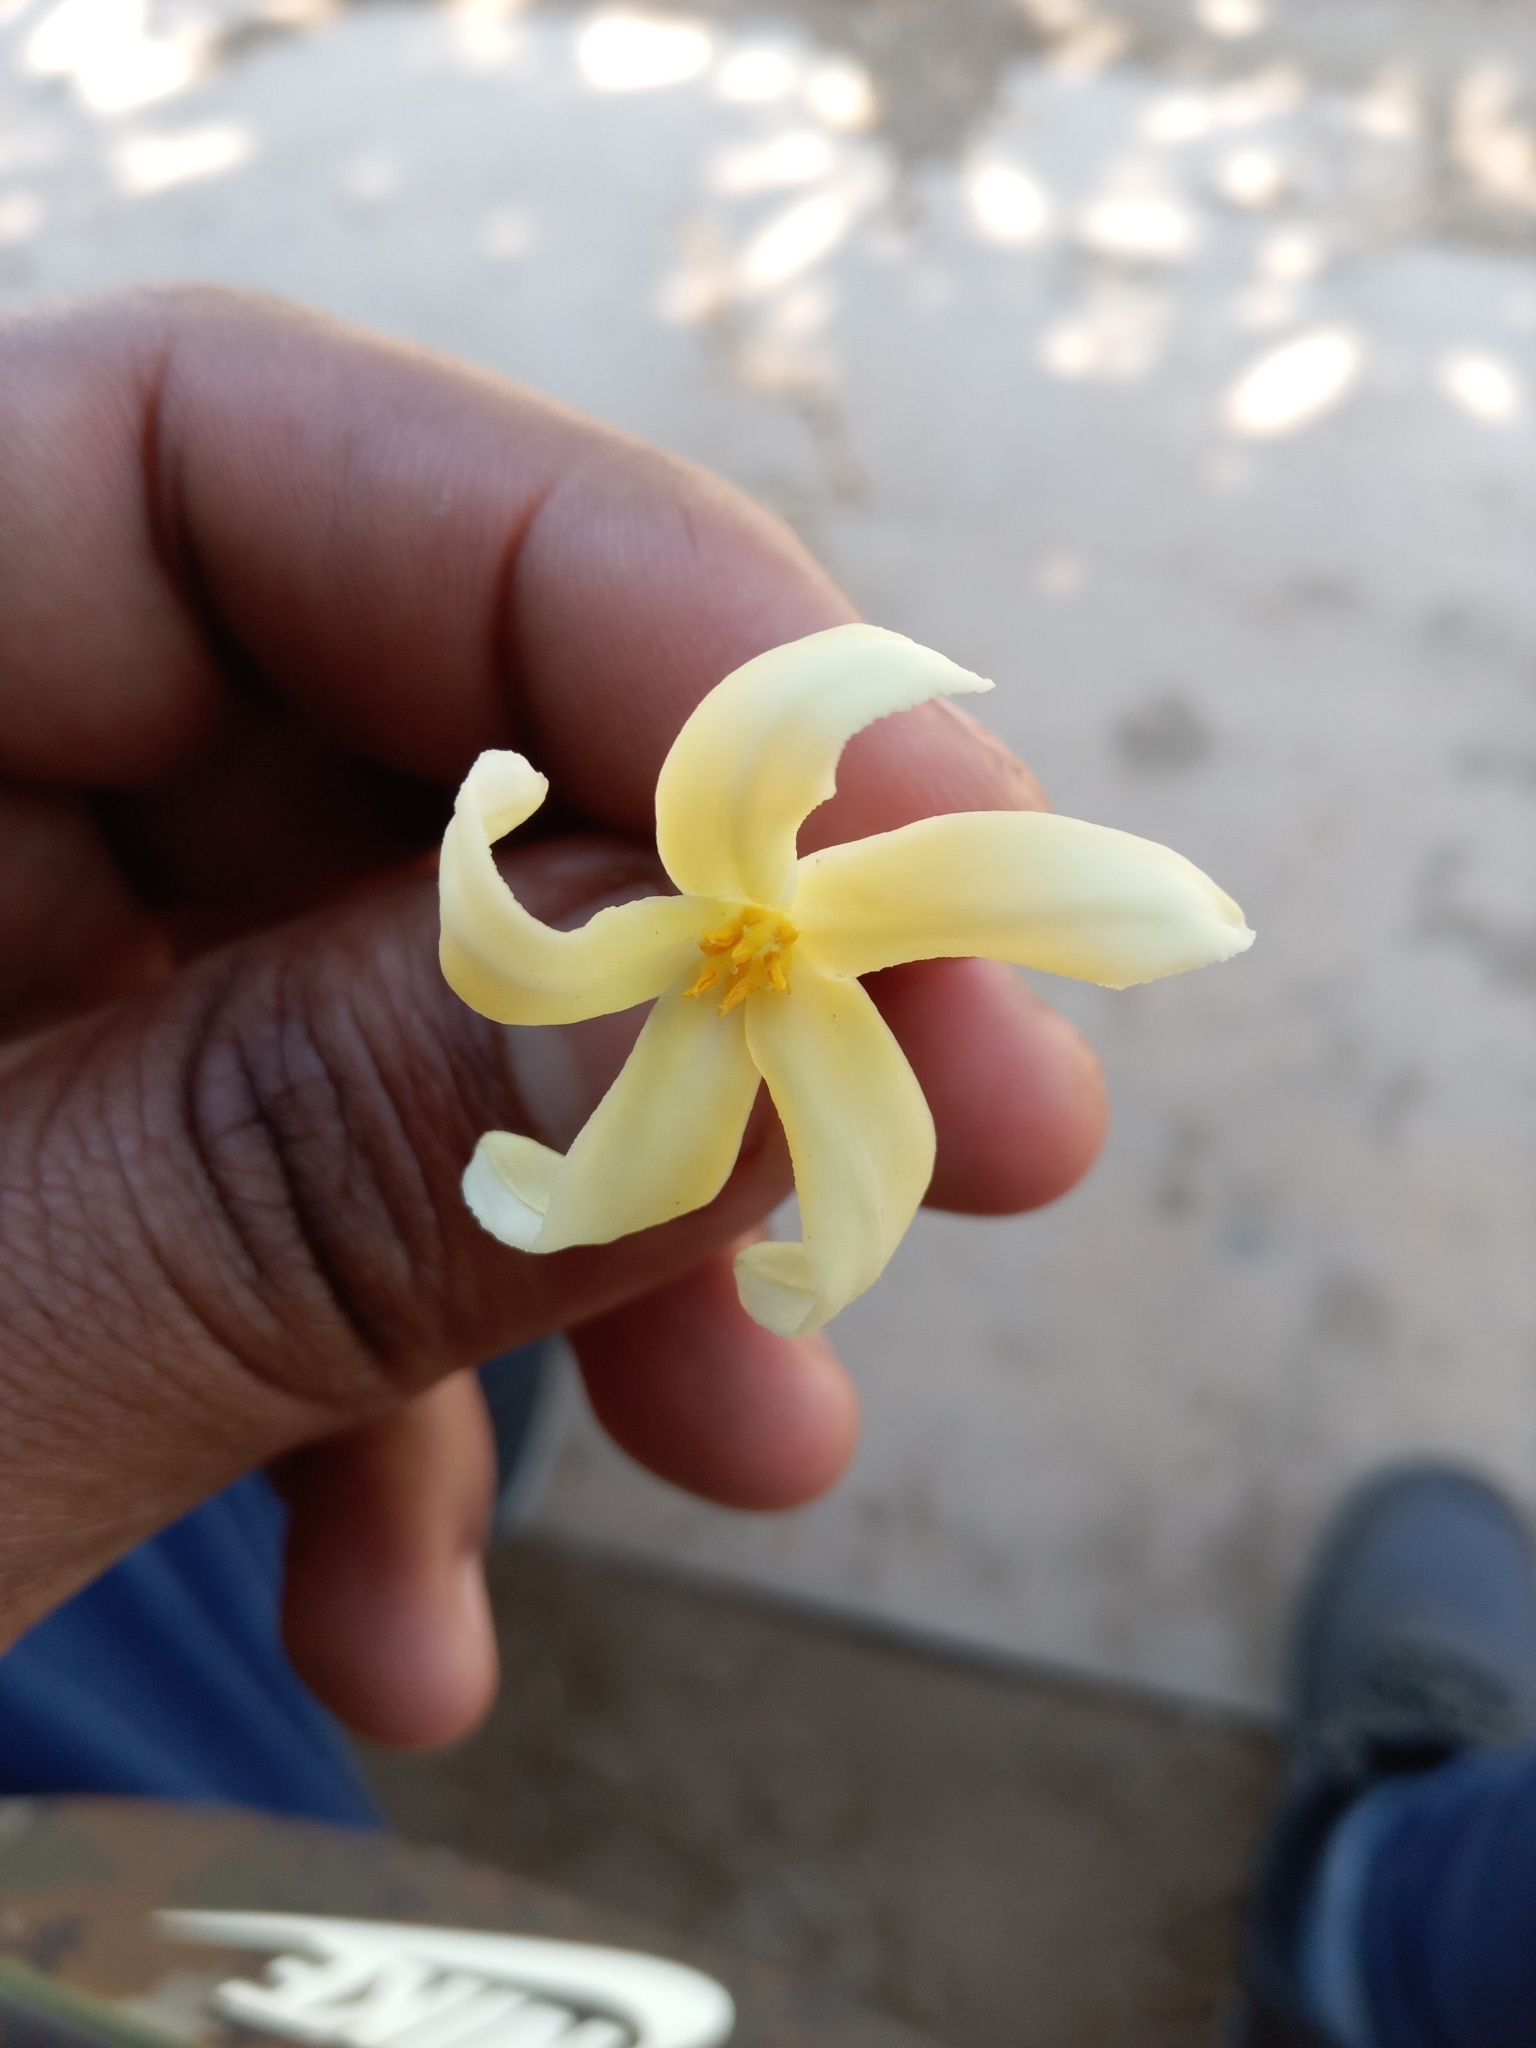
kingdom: Plantae
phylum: Tracheophyta
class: Magnoliopsida
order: Brassicales
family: Caricaceae
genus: Carica
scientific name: Carica papaya
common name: Papaya
